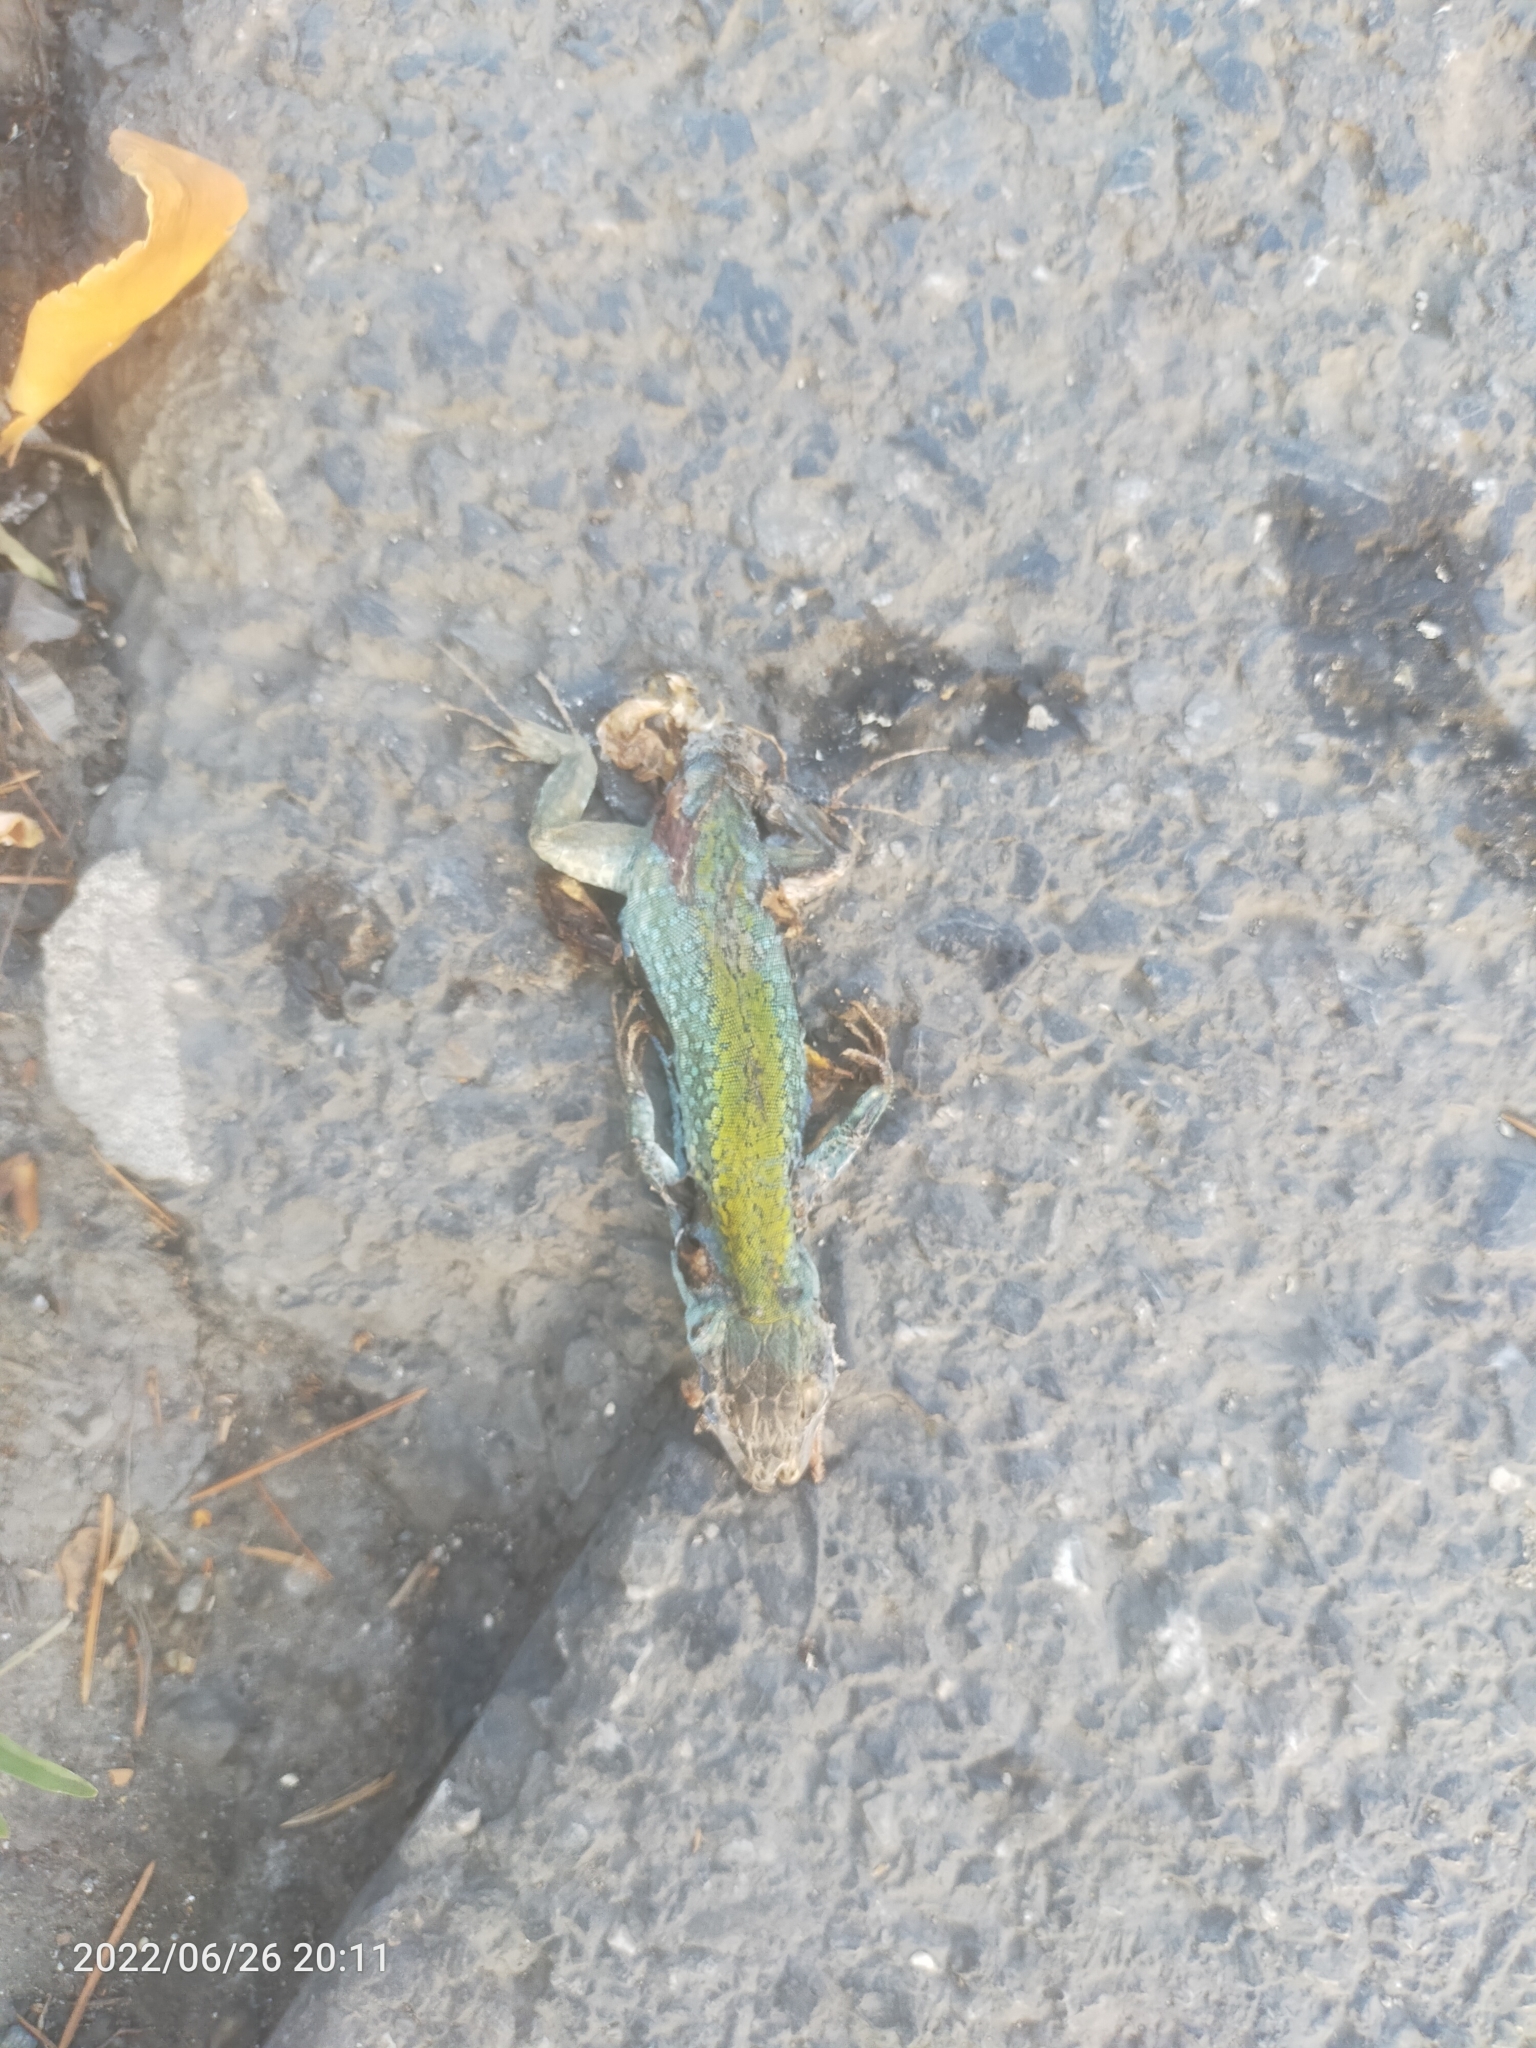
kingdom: Animalia
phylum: Chordata
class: Squamata
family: Lacertidae
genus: Podarcis
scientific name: Podarcis siculus
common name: Italian wall lizard
